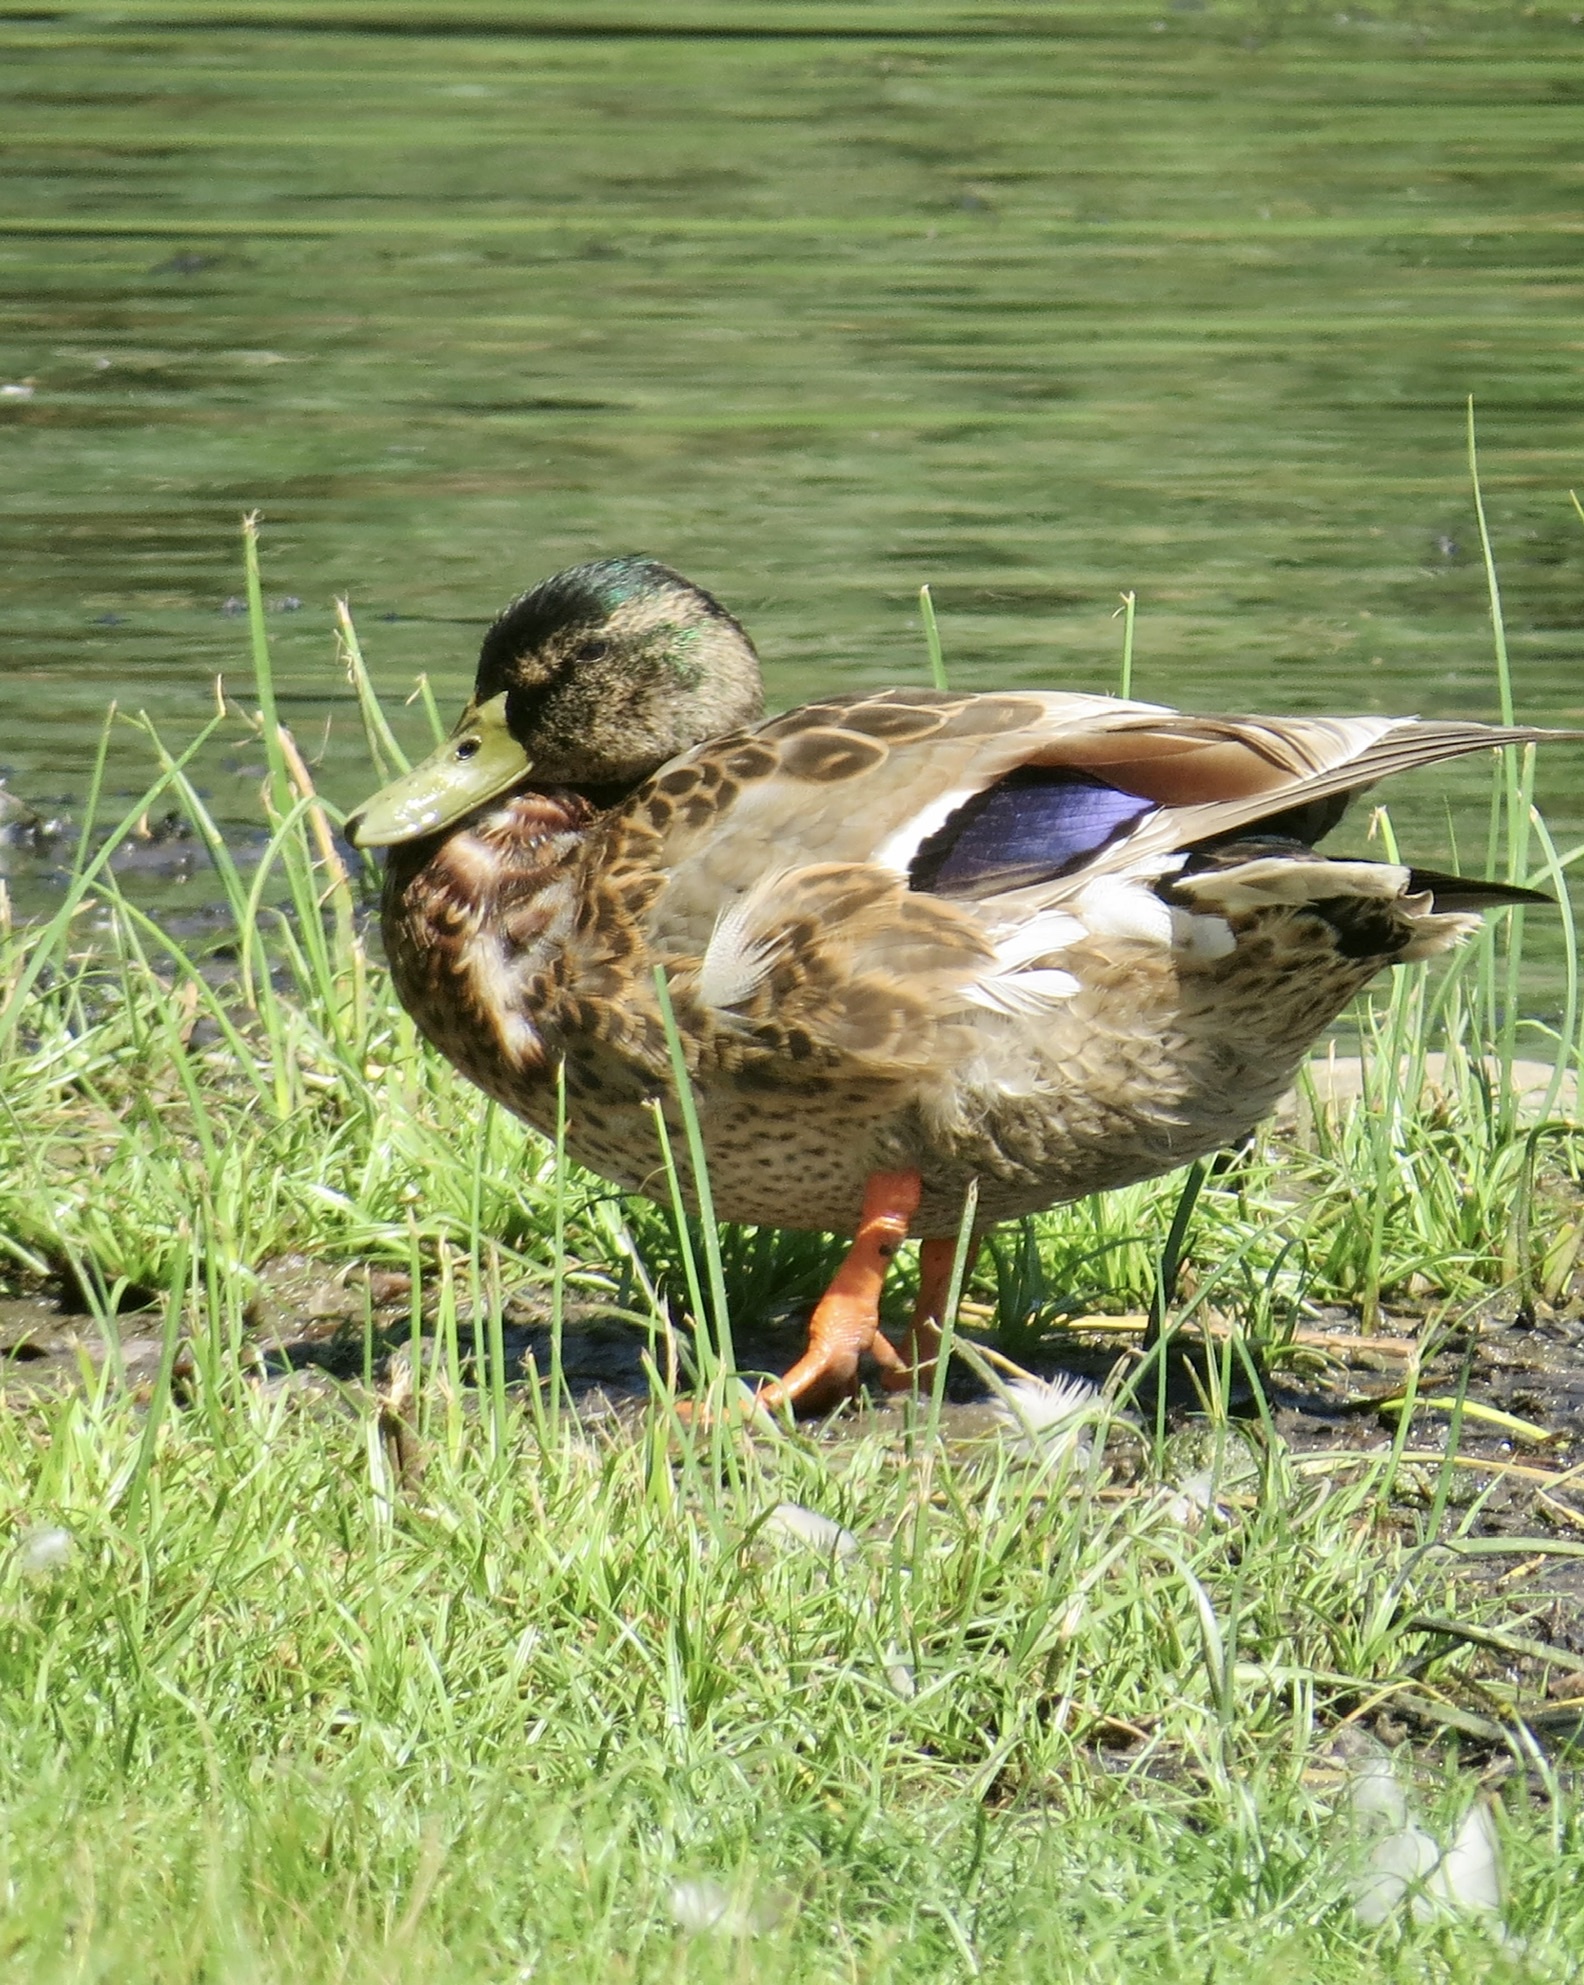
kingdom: Animalia
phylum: Chordata
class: Aves
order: Anseriformes
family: Anatidae
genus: Anas
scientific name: Anas platyrhynchos
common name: Mallard
